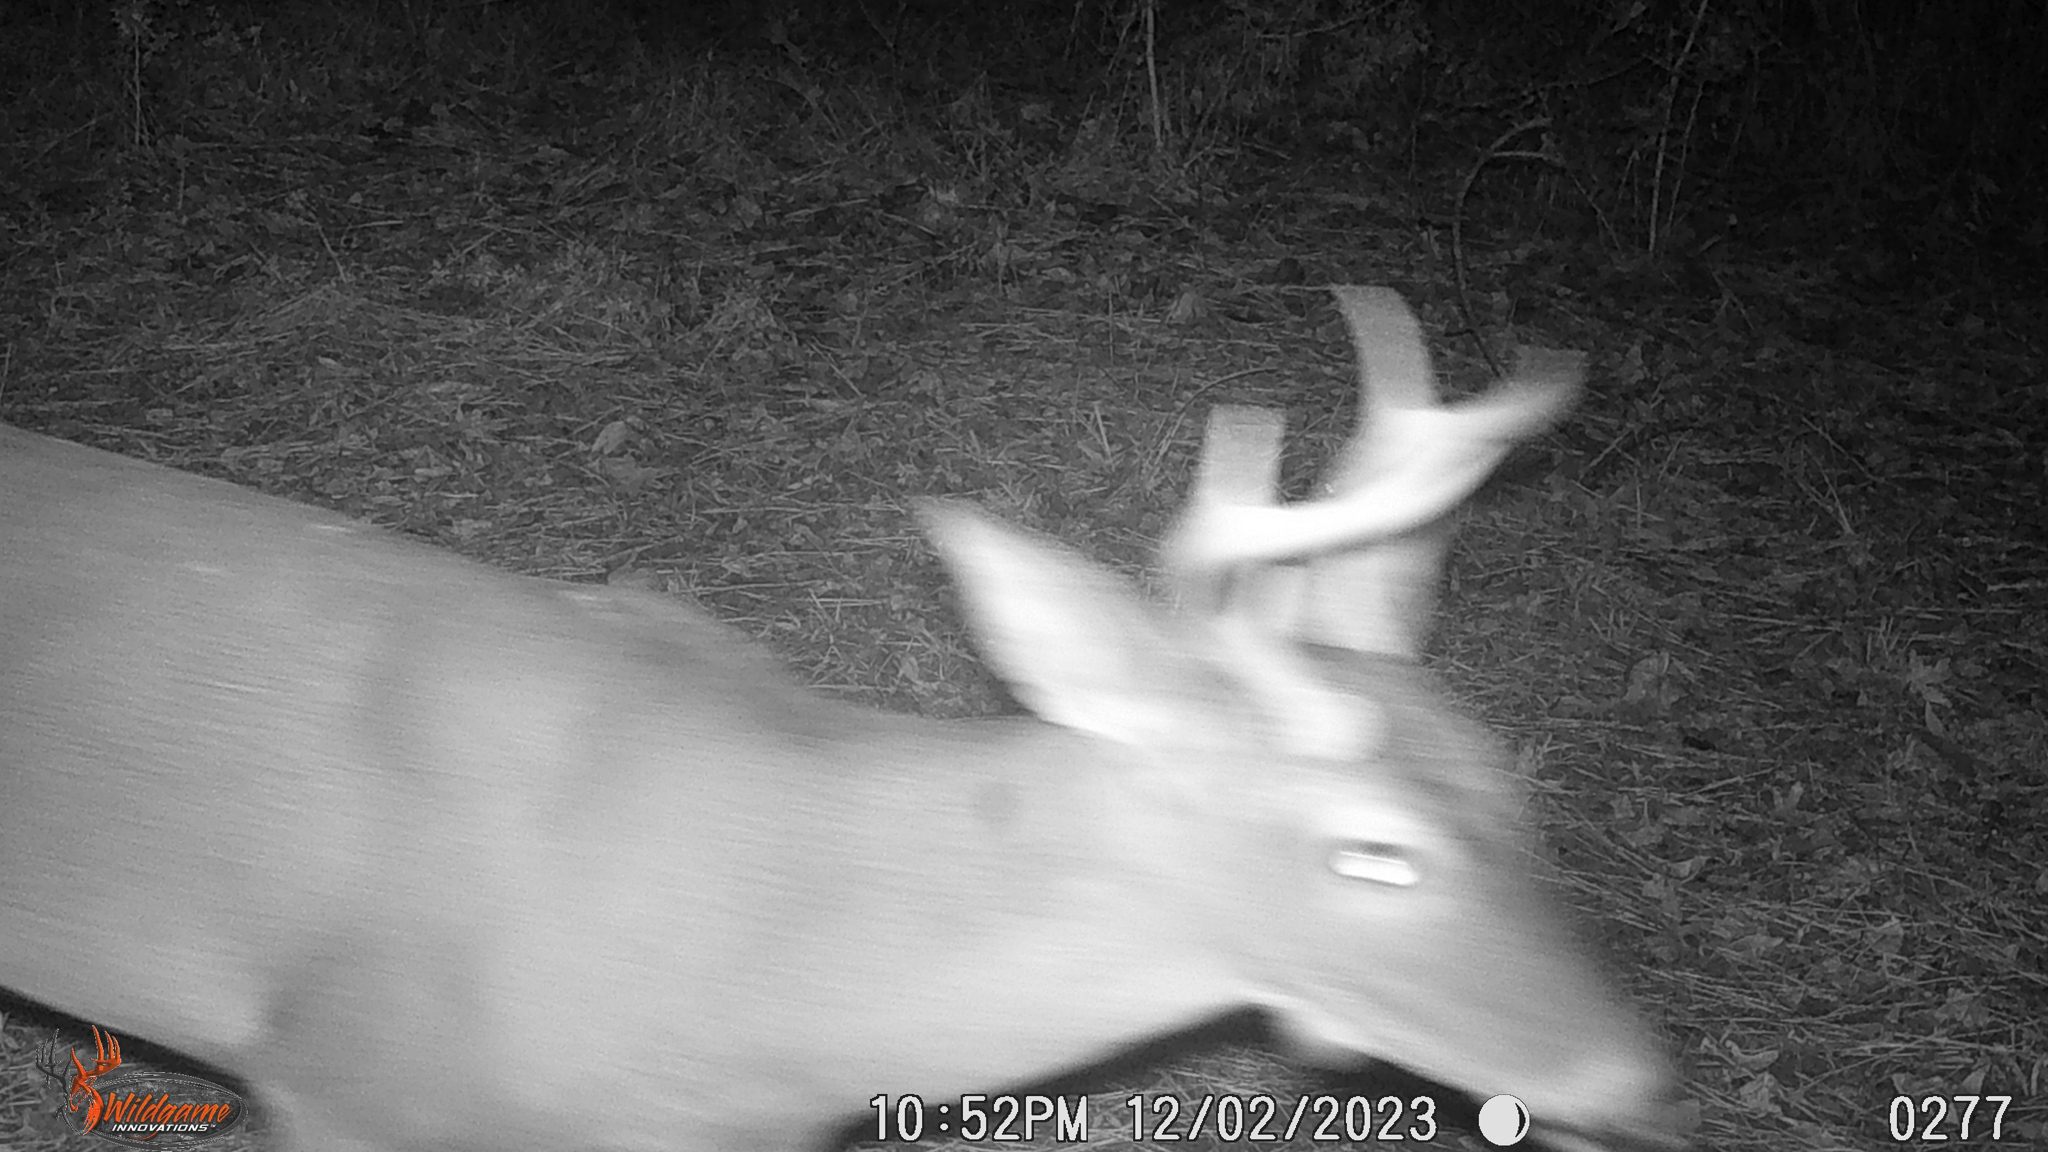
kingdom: Animalia
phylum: Chordata
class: Mammalia
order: Artiodactyla
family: Cervidae
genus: Odocoileus
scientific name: Odocoileus virginianus
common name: White-tailed deer
